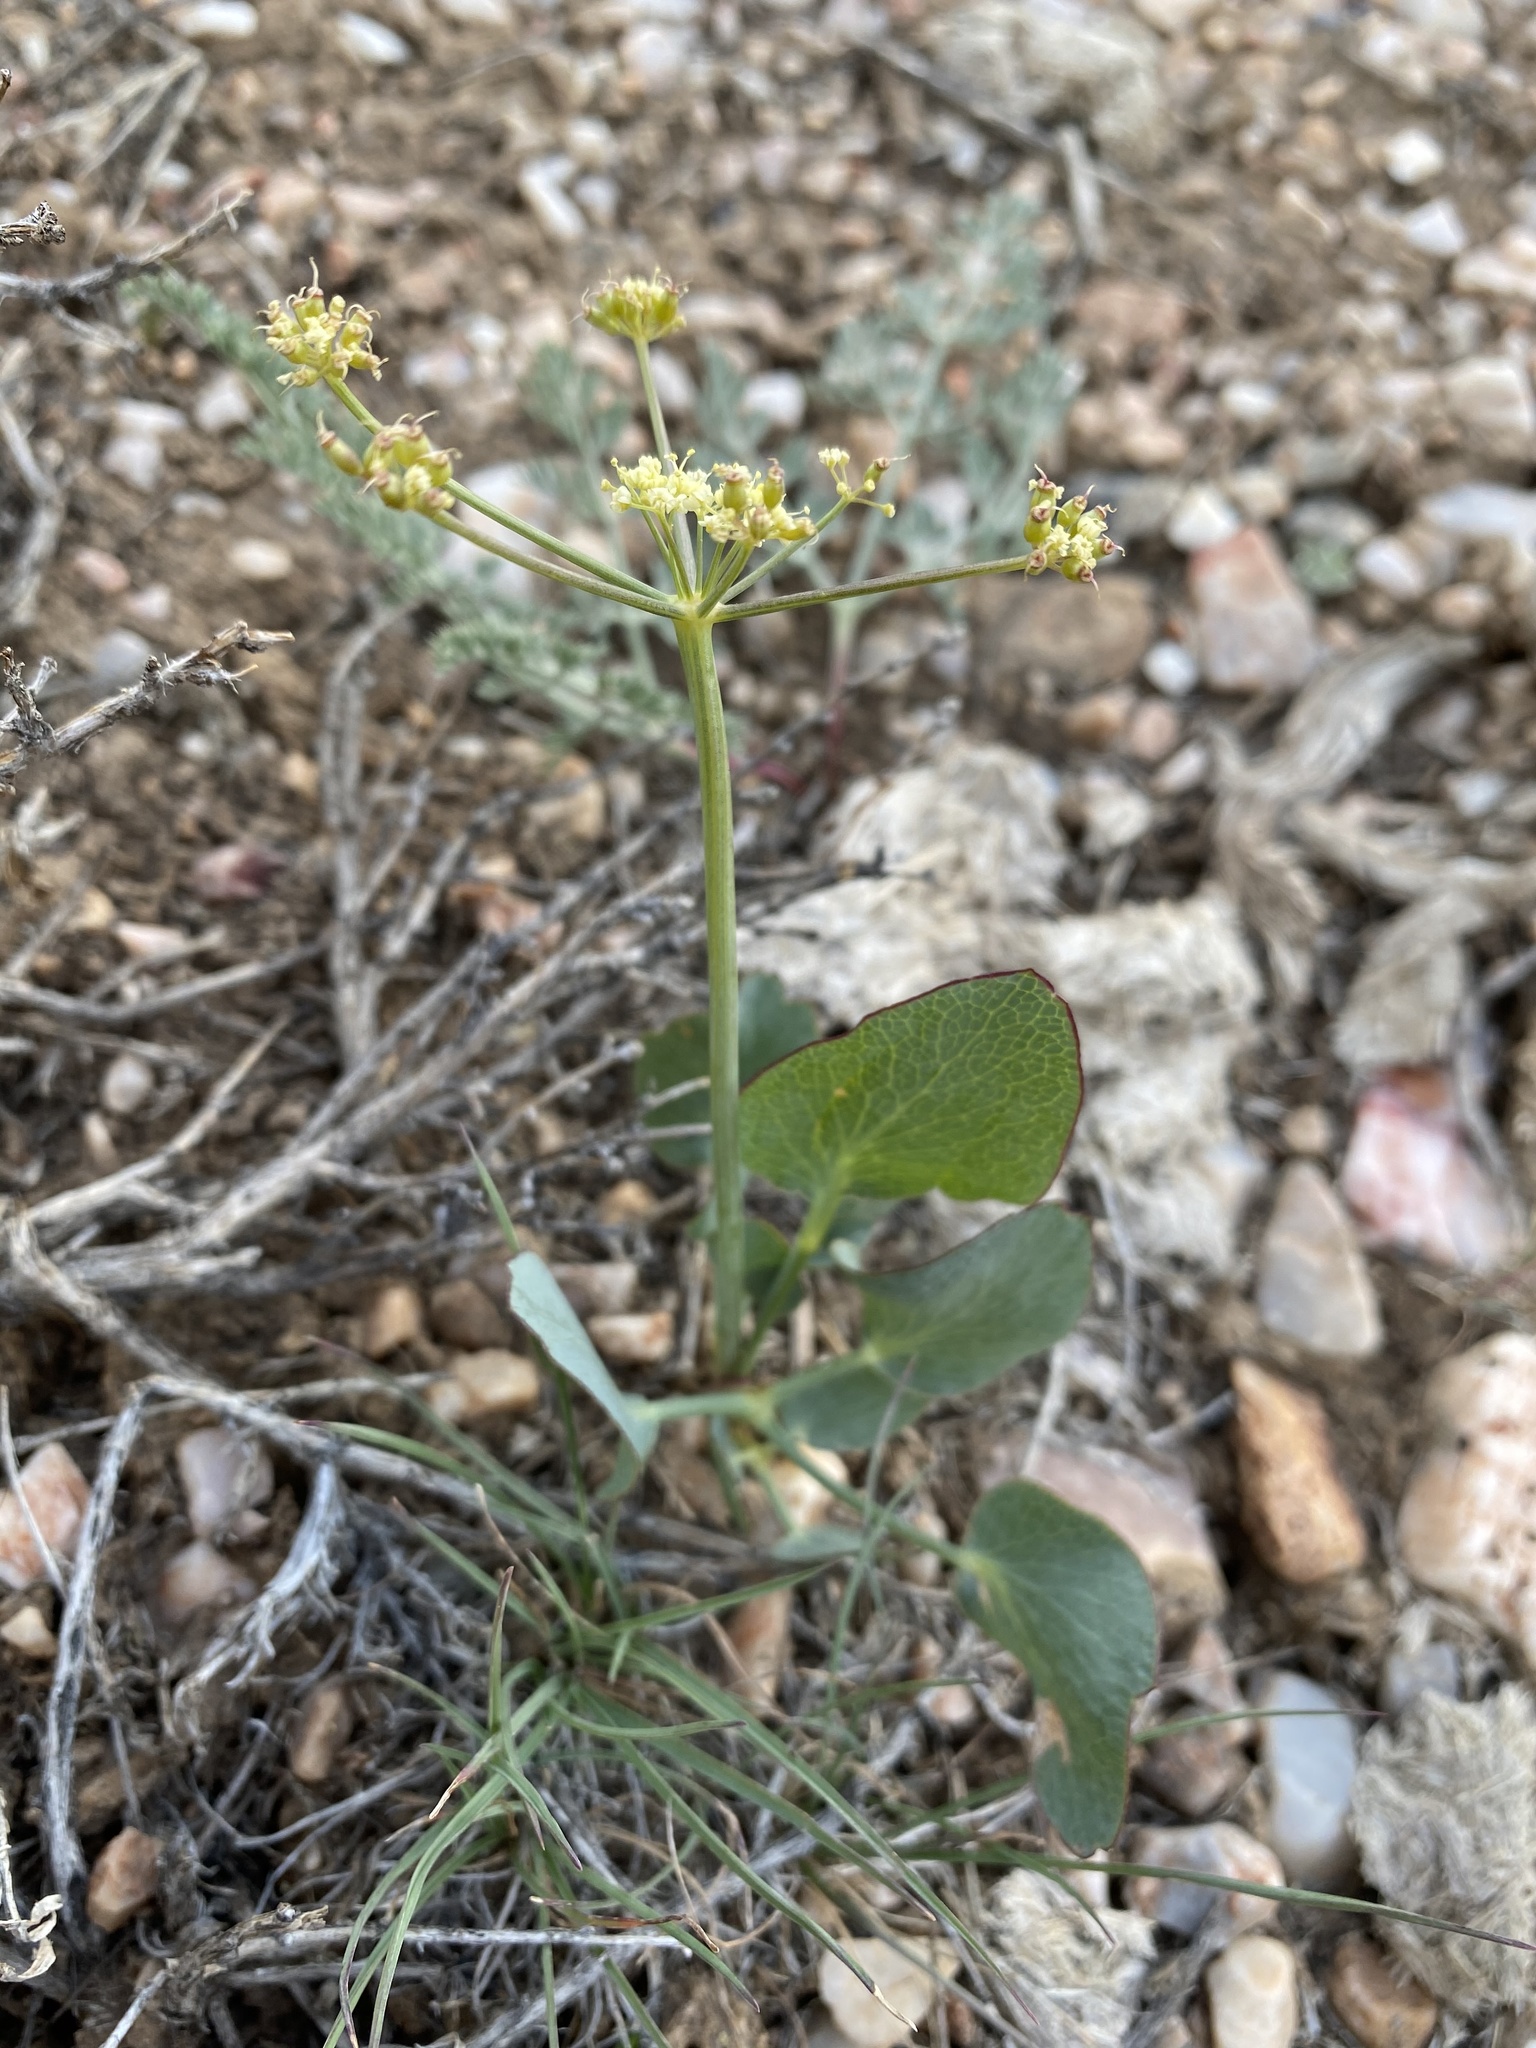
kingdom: Plantae
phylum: Tracheophyta
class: Magnoliopsida
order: Apiales
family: Apiaceae
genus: Lomatium
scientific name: Lomatium nudicaule
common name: Pestle lomatium
